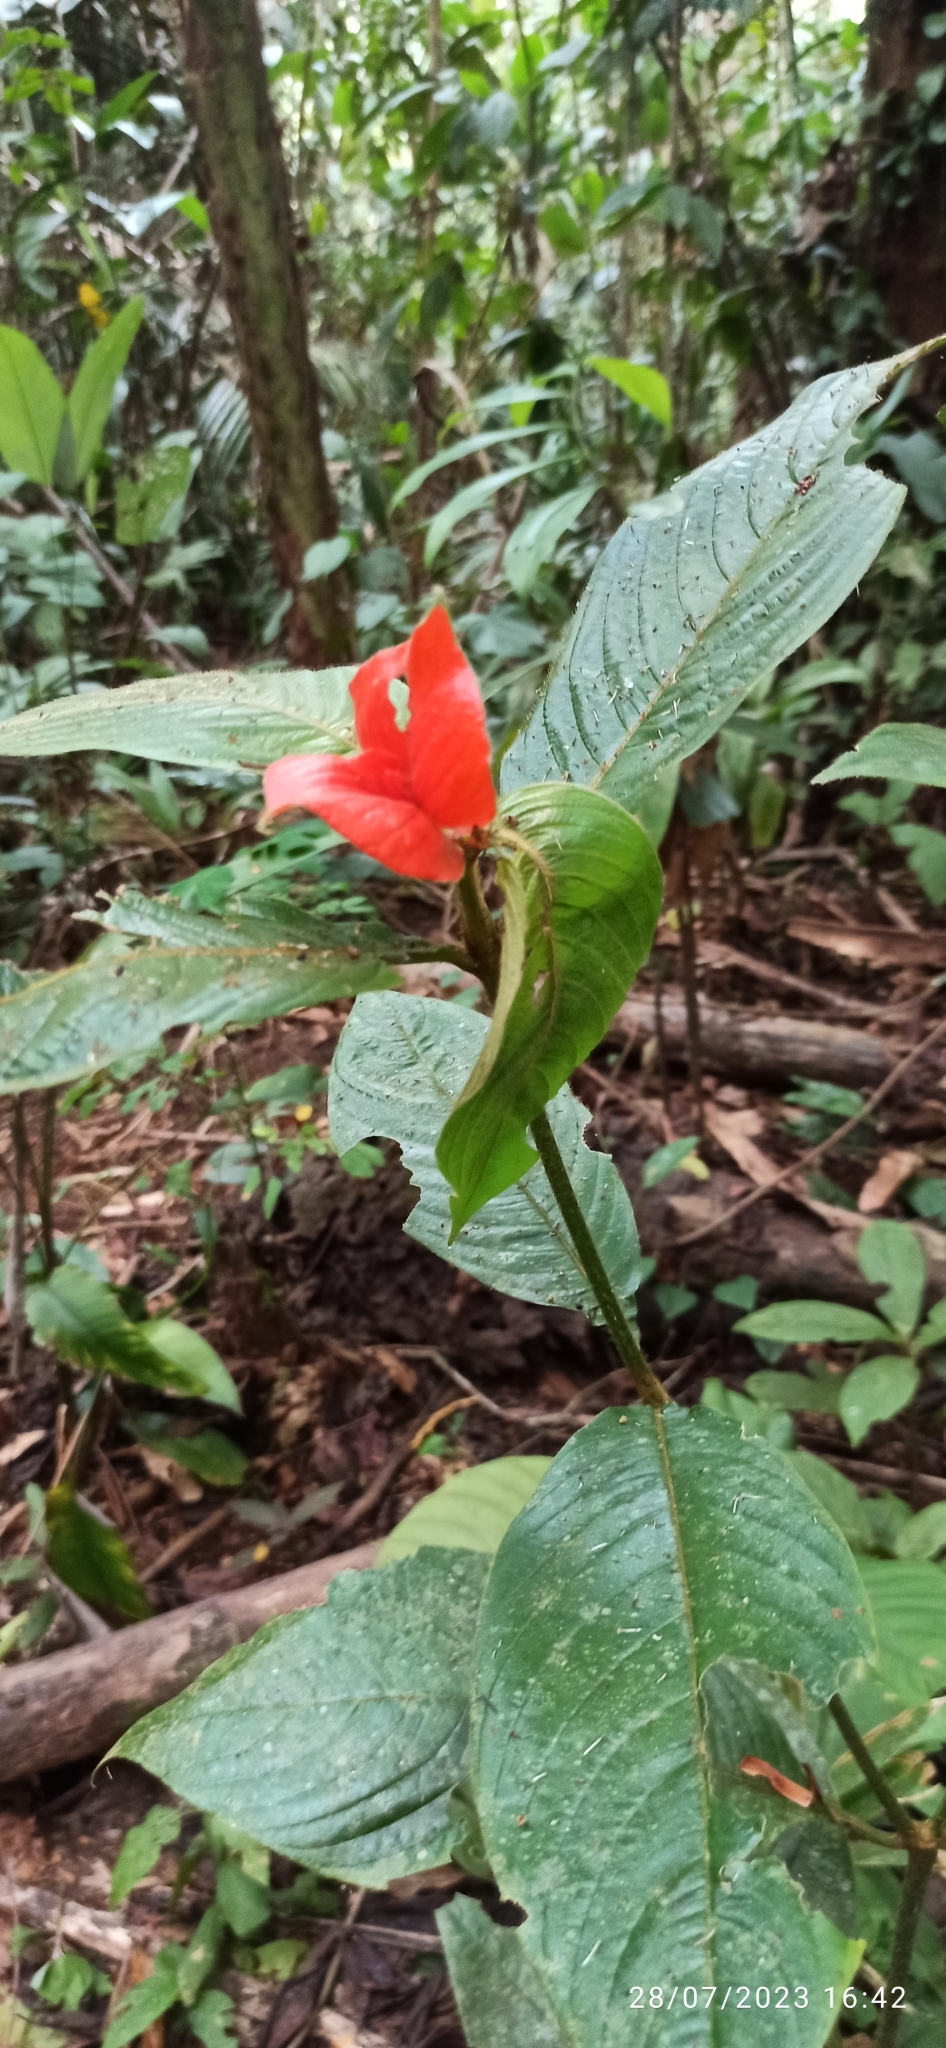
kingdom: Plantae
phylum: Tracheophyta
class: Magnoliopsida
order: Gentianales
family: Rubiaceae
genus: Palicourea
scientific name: Palicourea tomentosa
